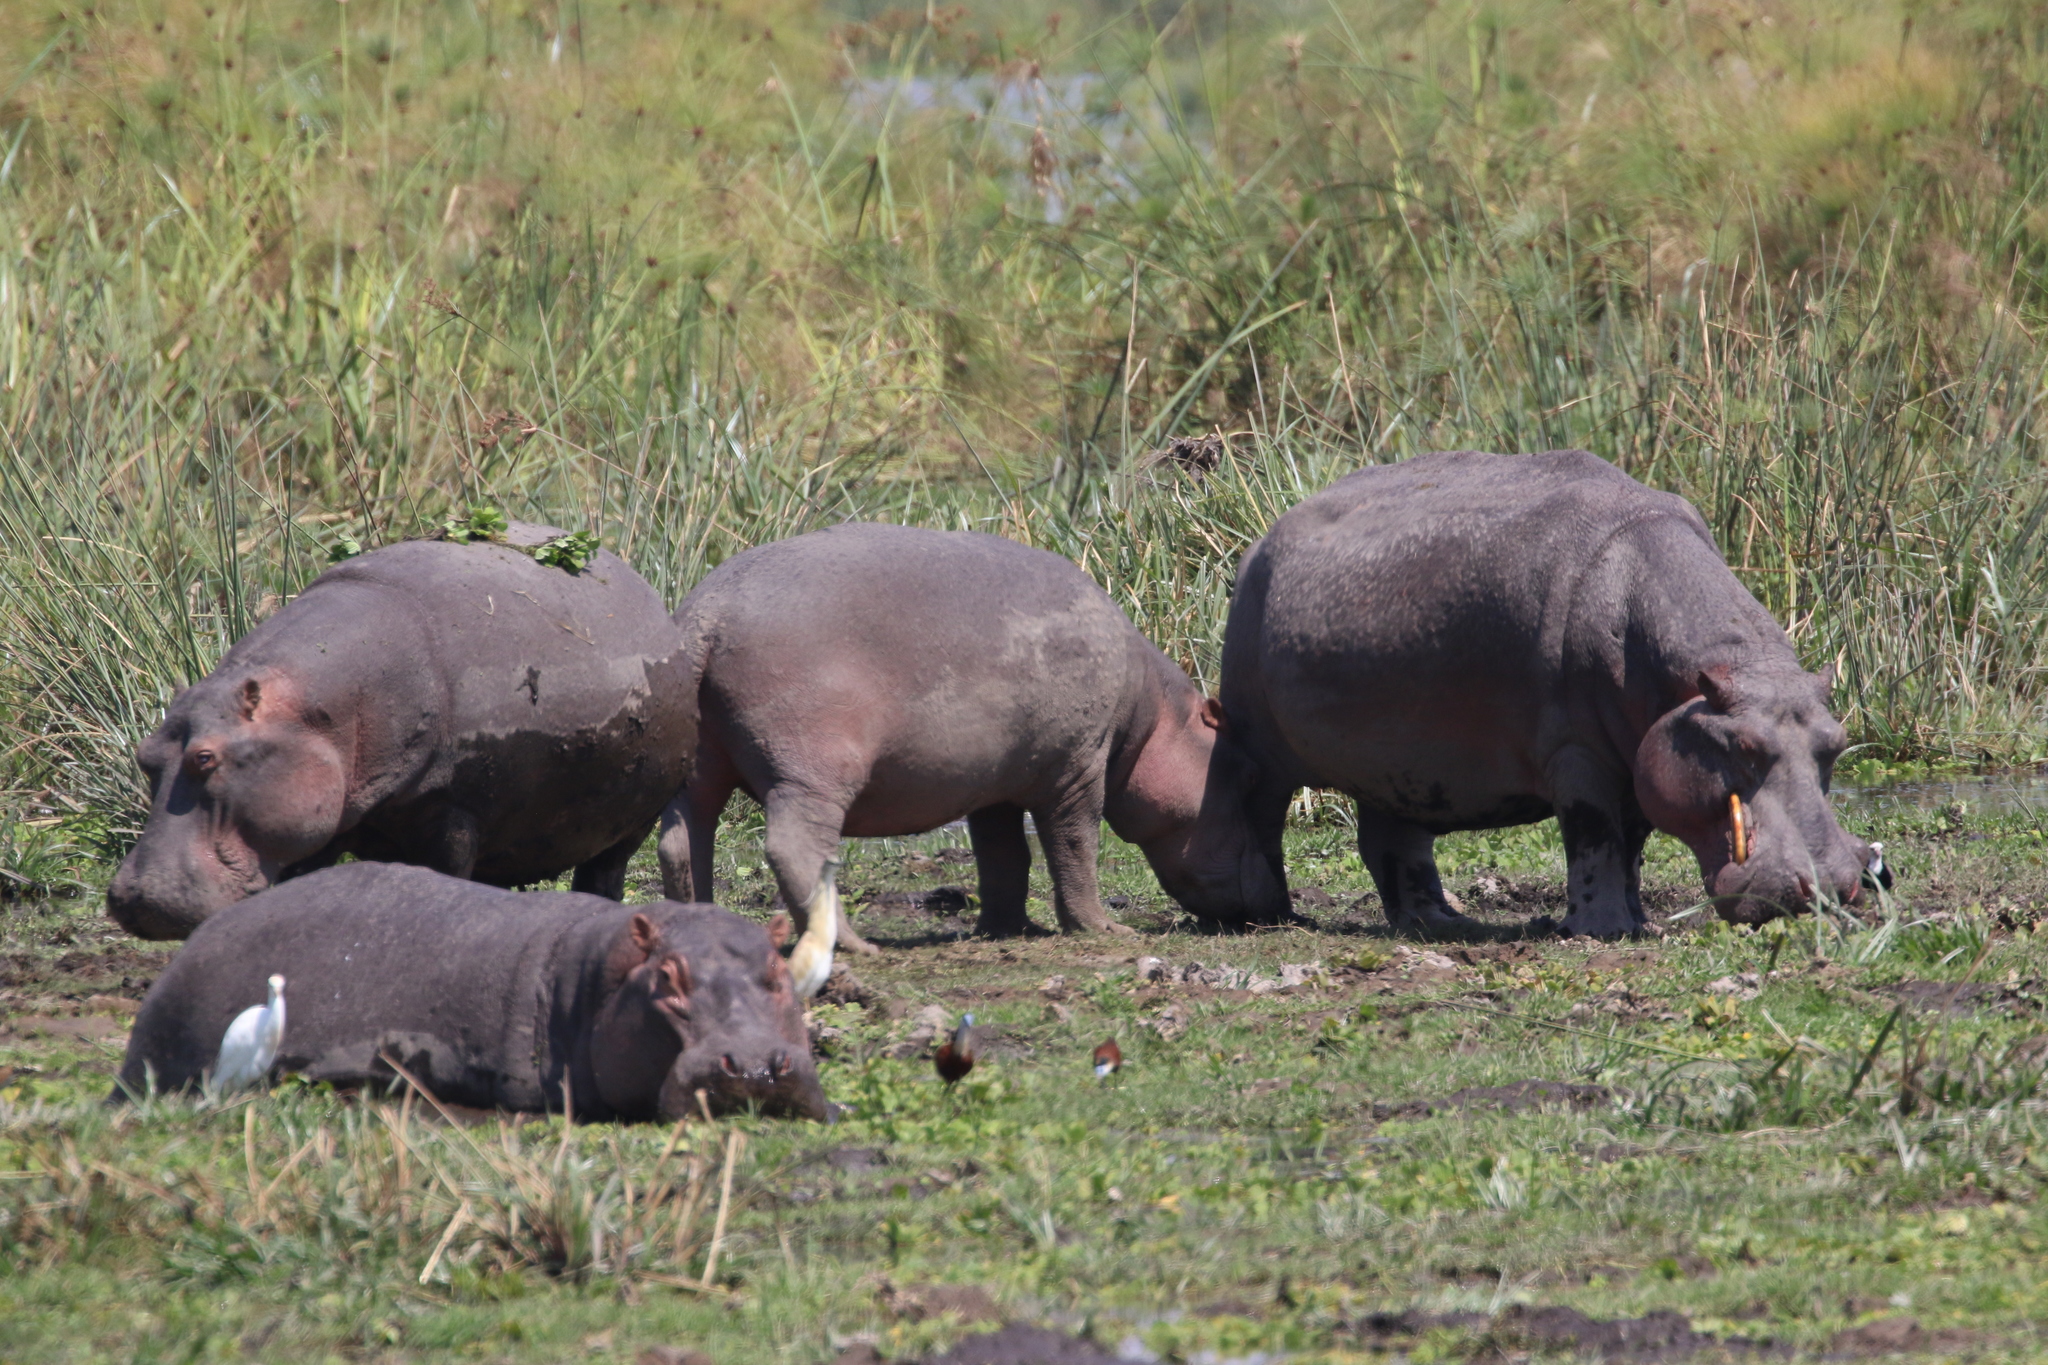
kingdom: Animalia
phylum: Chordata
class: Mammalia
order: Artiodactyla
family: Hippopotamidae
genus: Hippopotamus
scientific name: Hippopotamus amphibius
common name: Common hippopotamus
